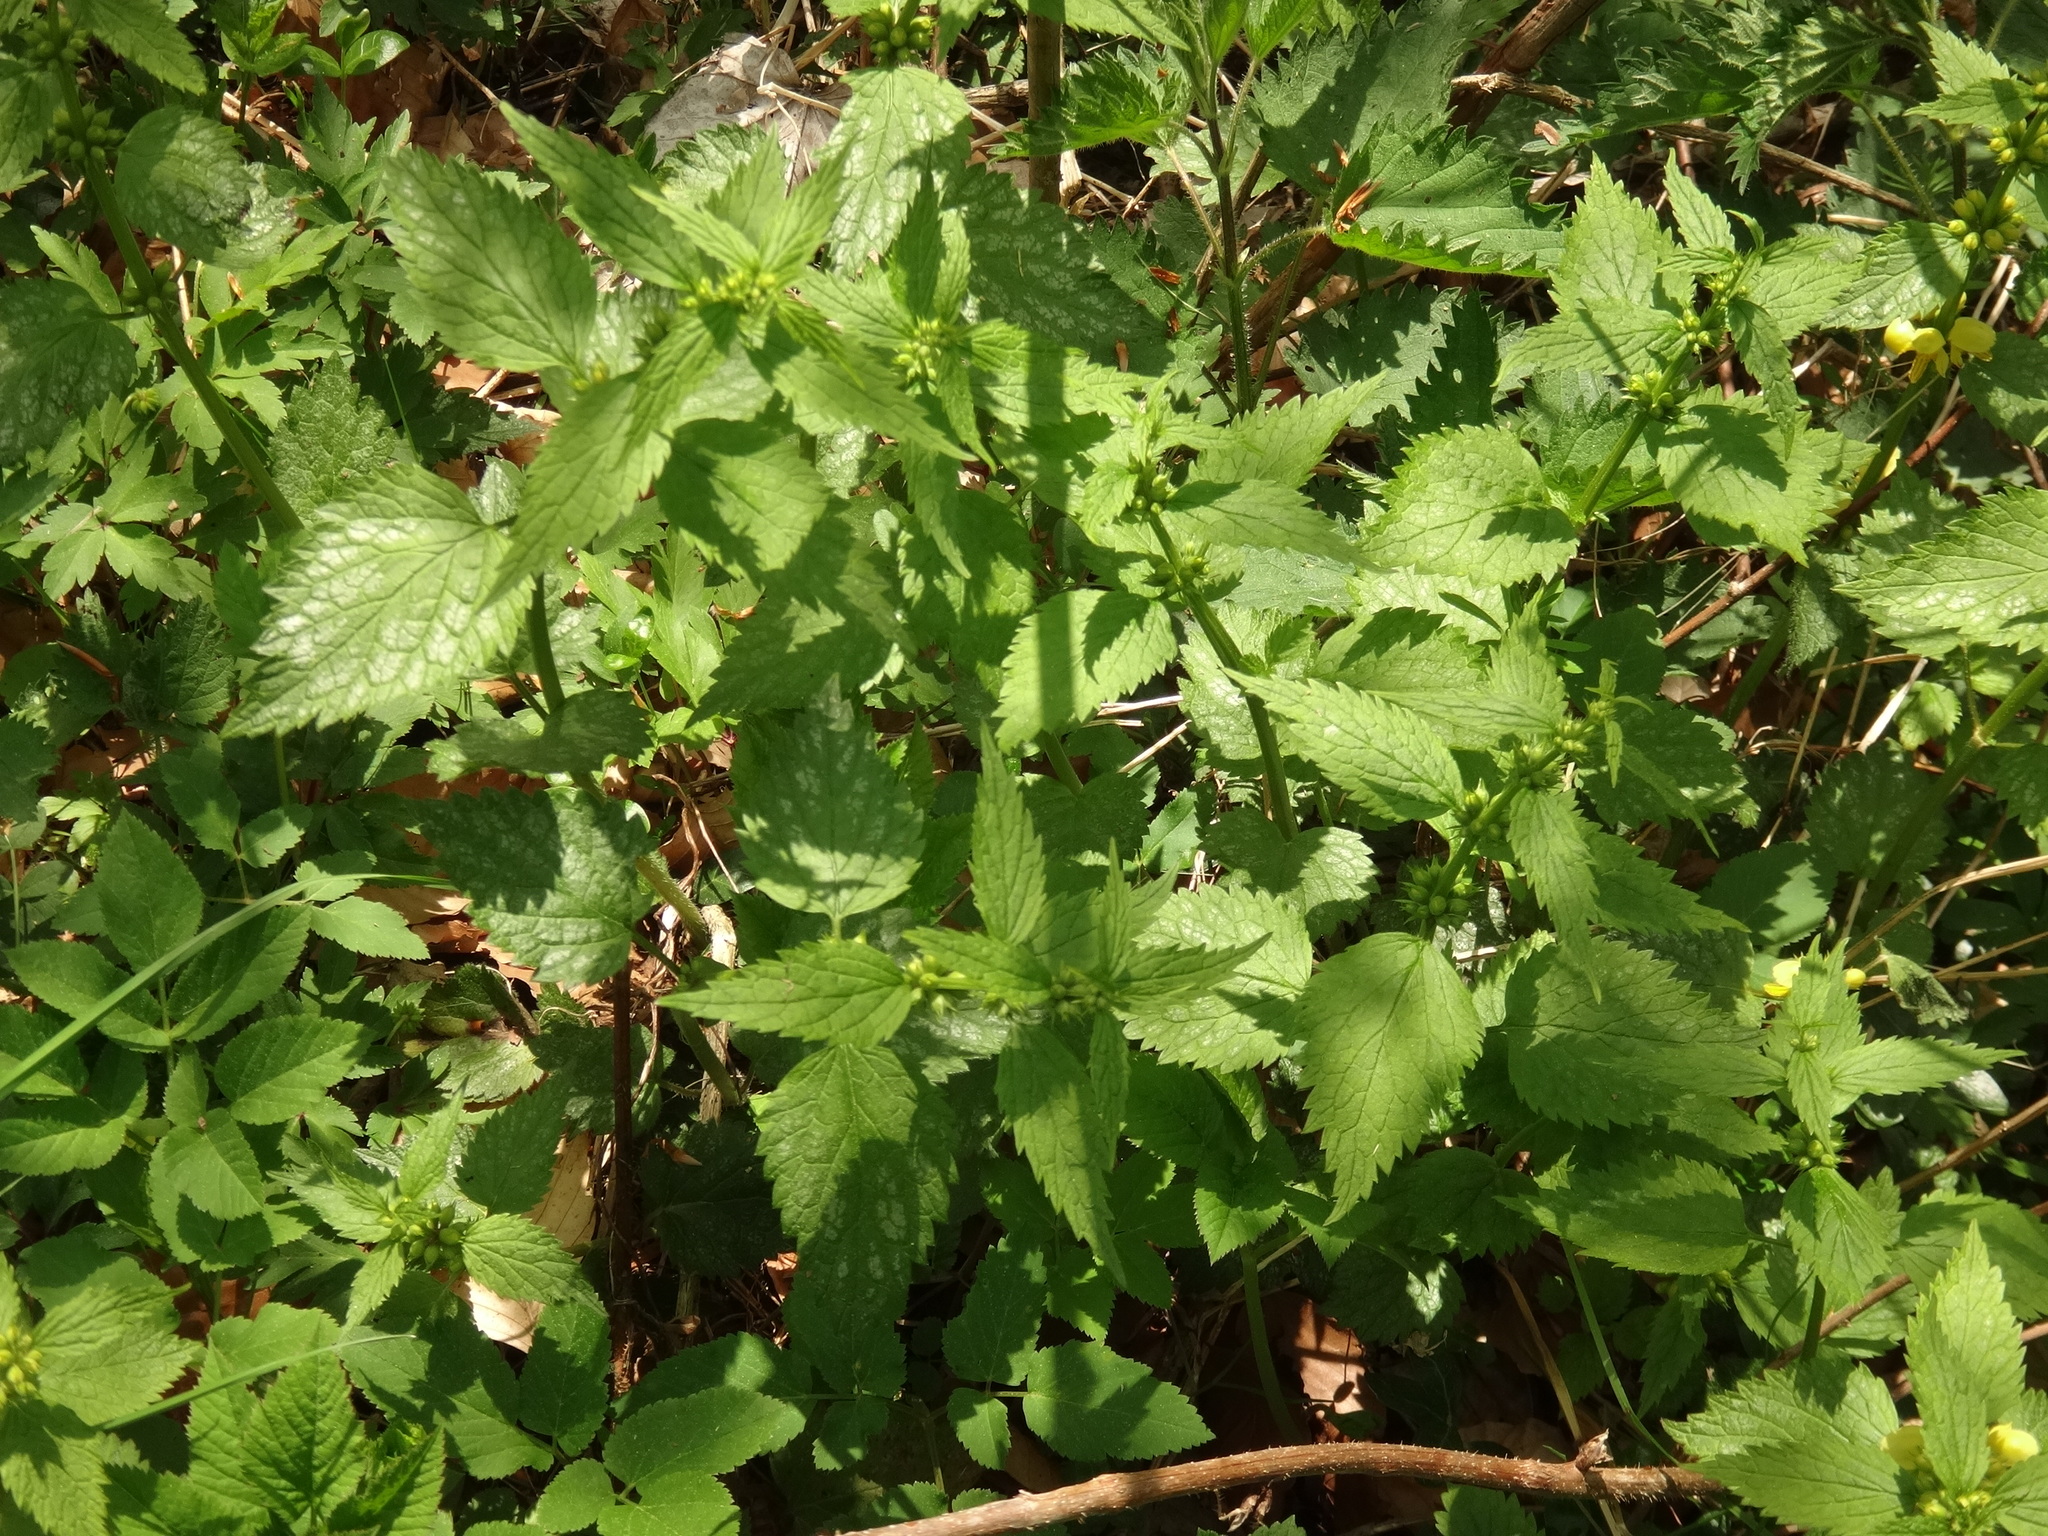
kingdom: Plantae
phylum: Tracheophyta
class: Magnoliopsida
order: Lamiales
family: Lamiaceae
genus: Lamium
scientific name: Lamium galeobdolon
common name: Yellow archangel
